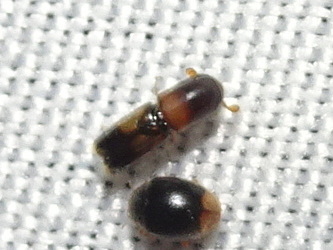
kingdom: Animalia
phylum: Arthropoda
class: Insecta
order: Coleoptera
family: Curculionidae
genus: Monarthrum
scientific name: Monarthrum fasciatum
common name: Yellow-banded timber beetle
